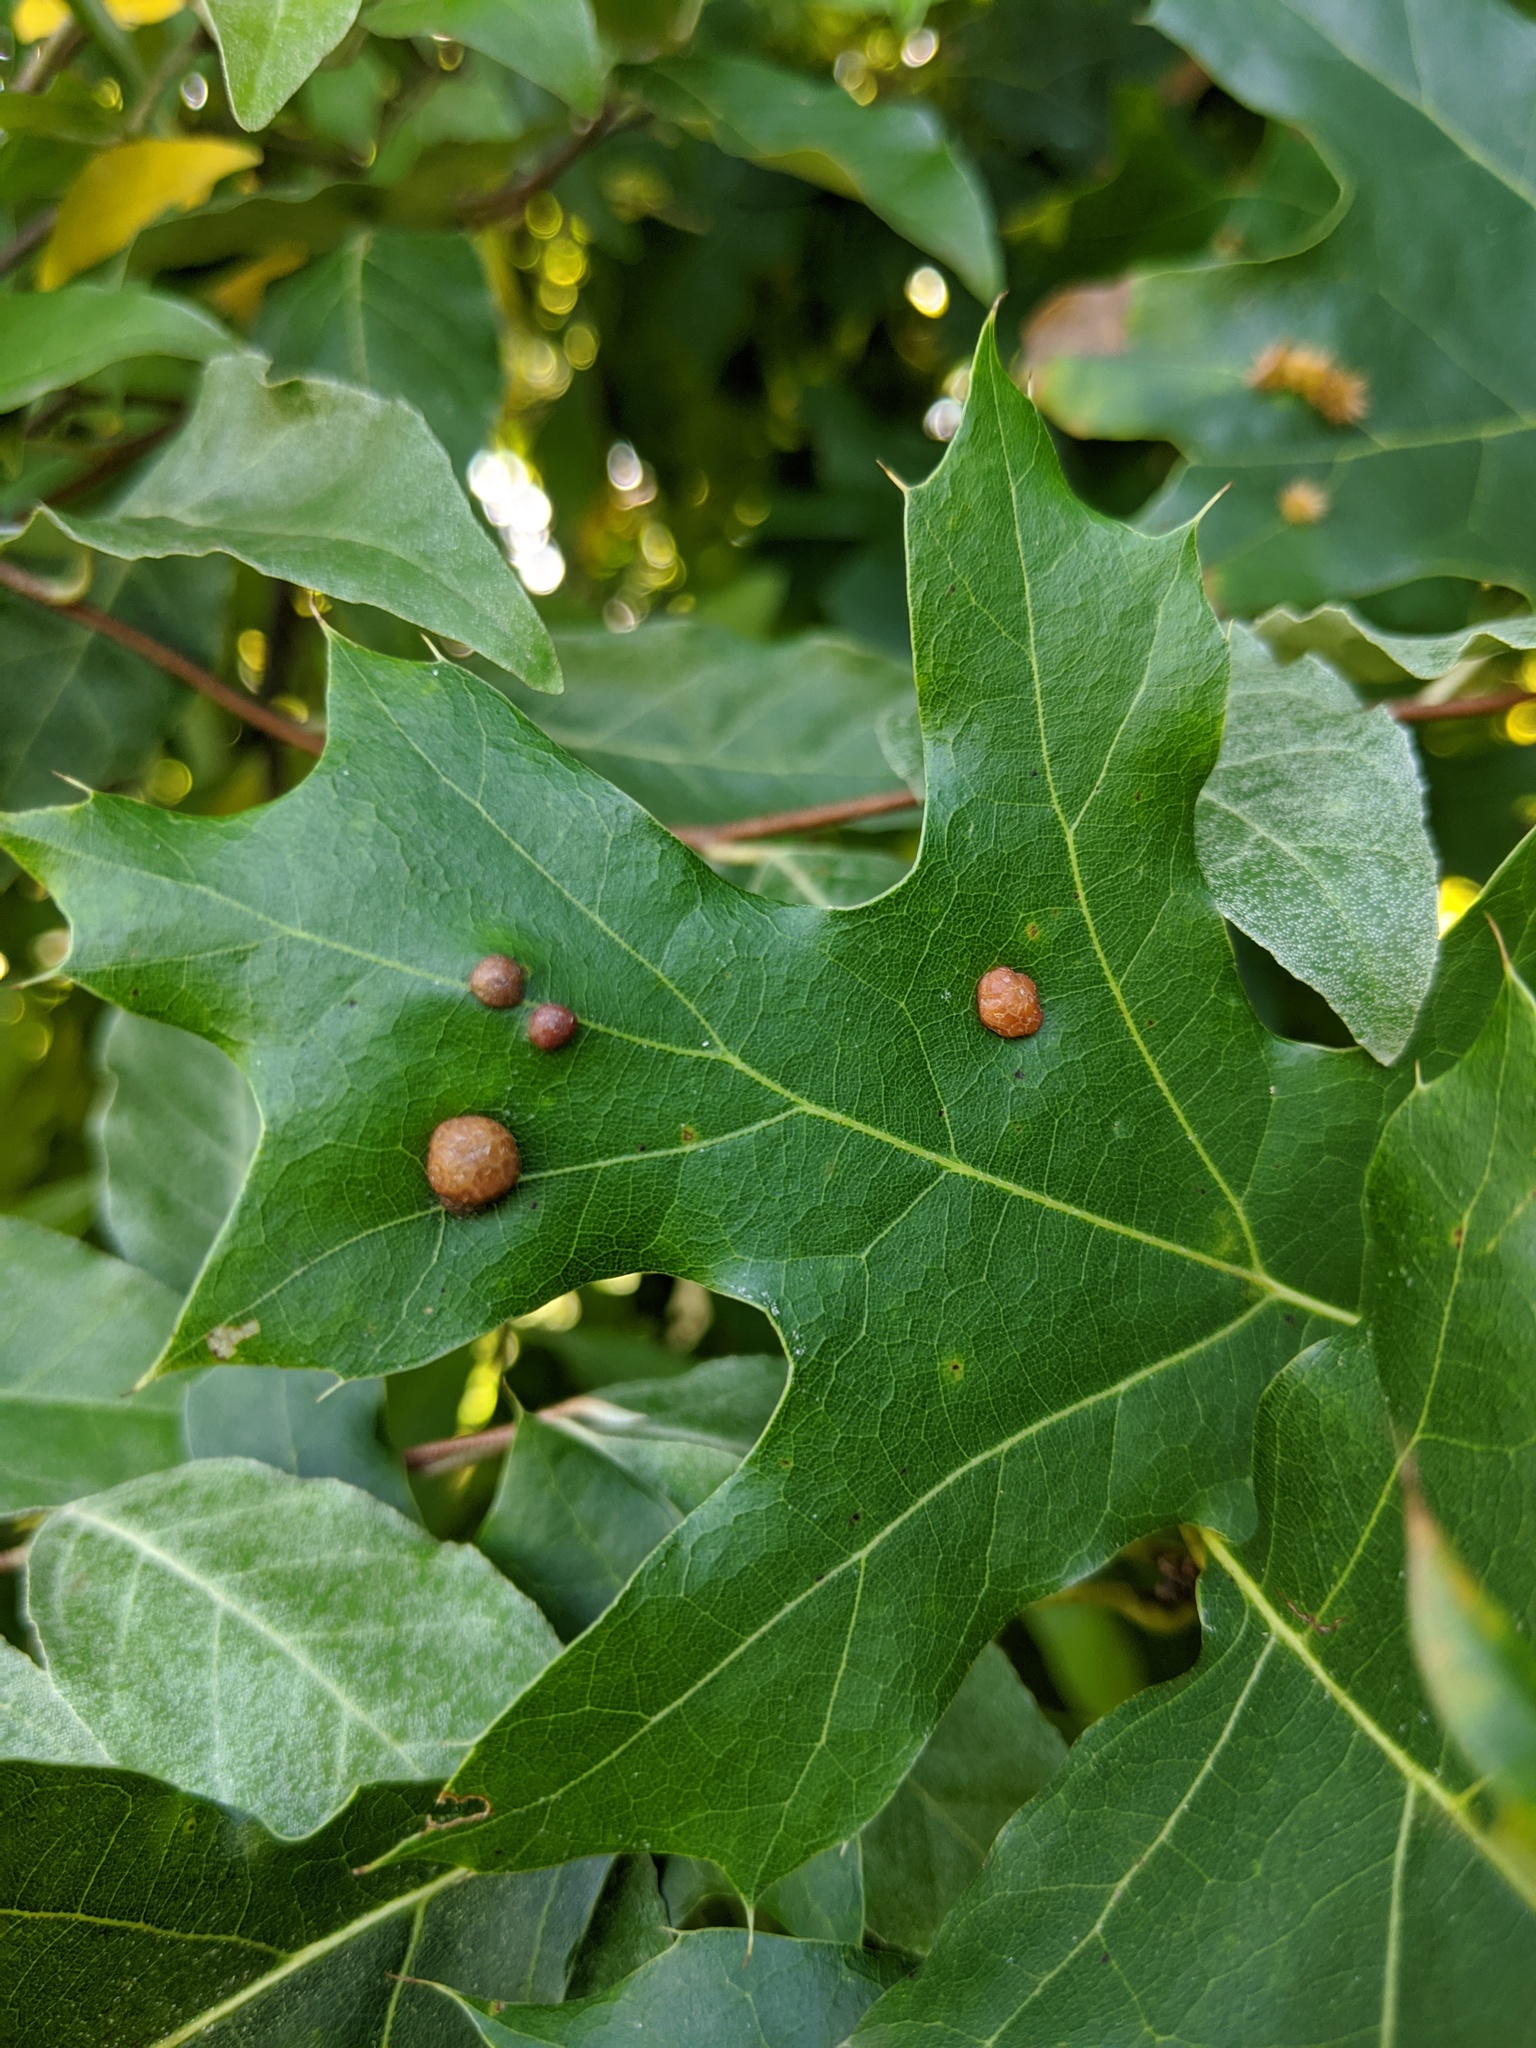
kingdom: Animalia
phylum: Arthropoda
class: Insecta
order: Diptera
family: Cecidomyiidae
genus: Polystepha
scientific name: Polystepha pilulae
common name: Oak leaf gall midge
